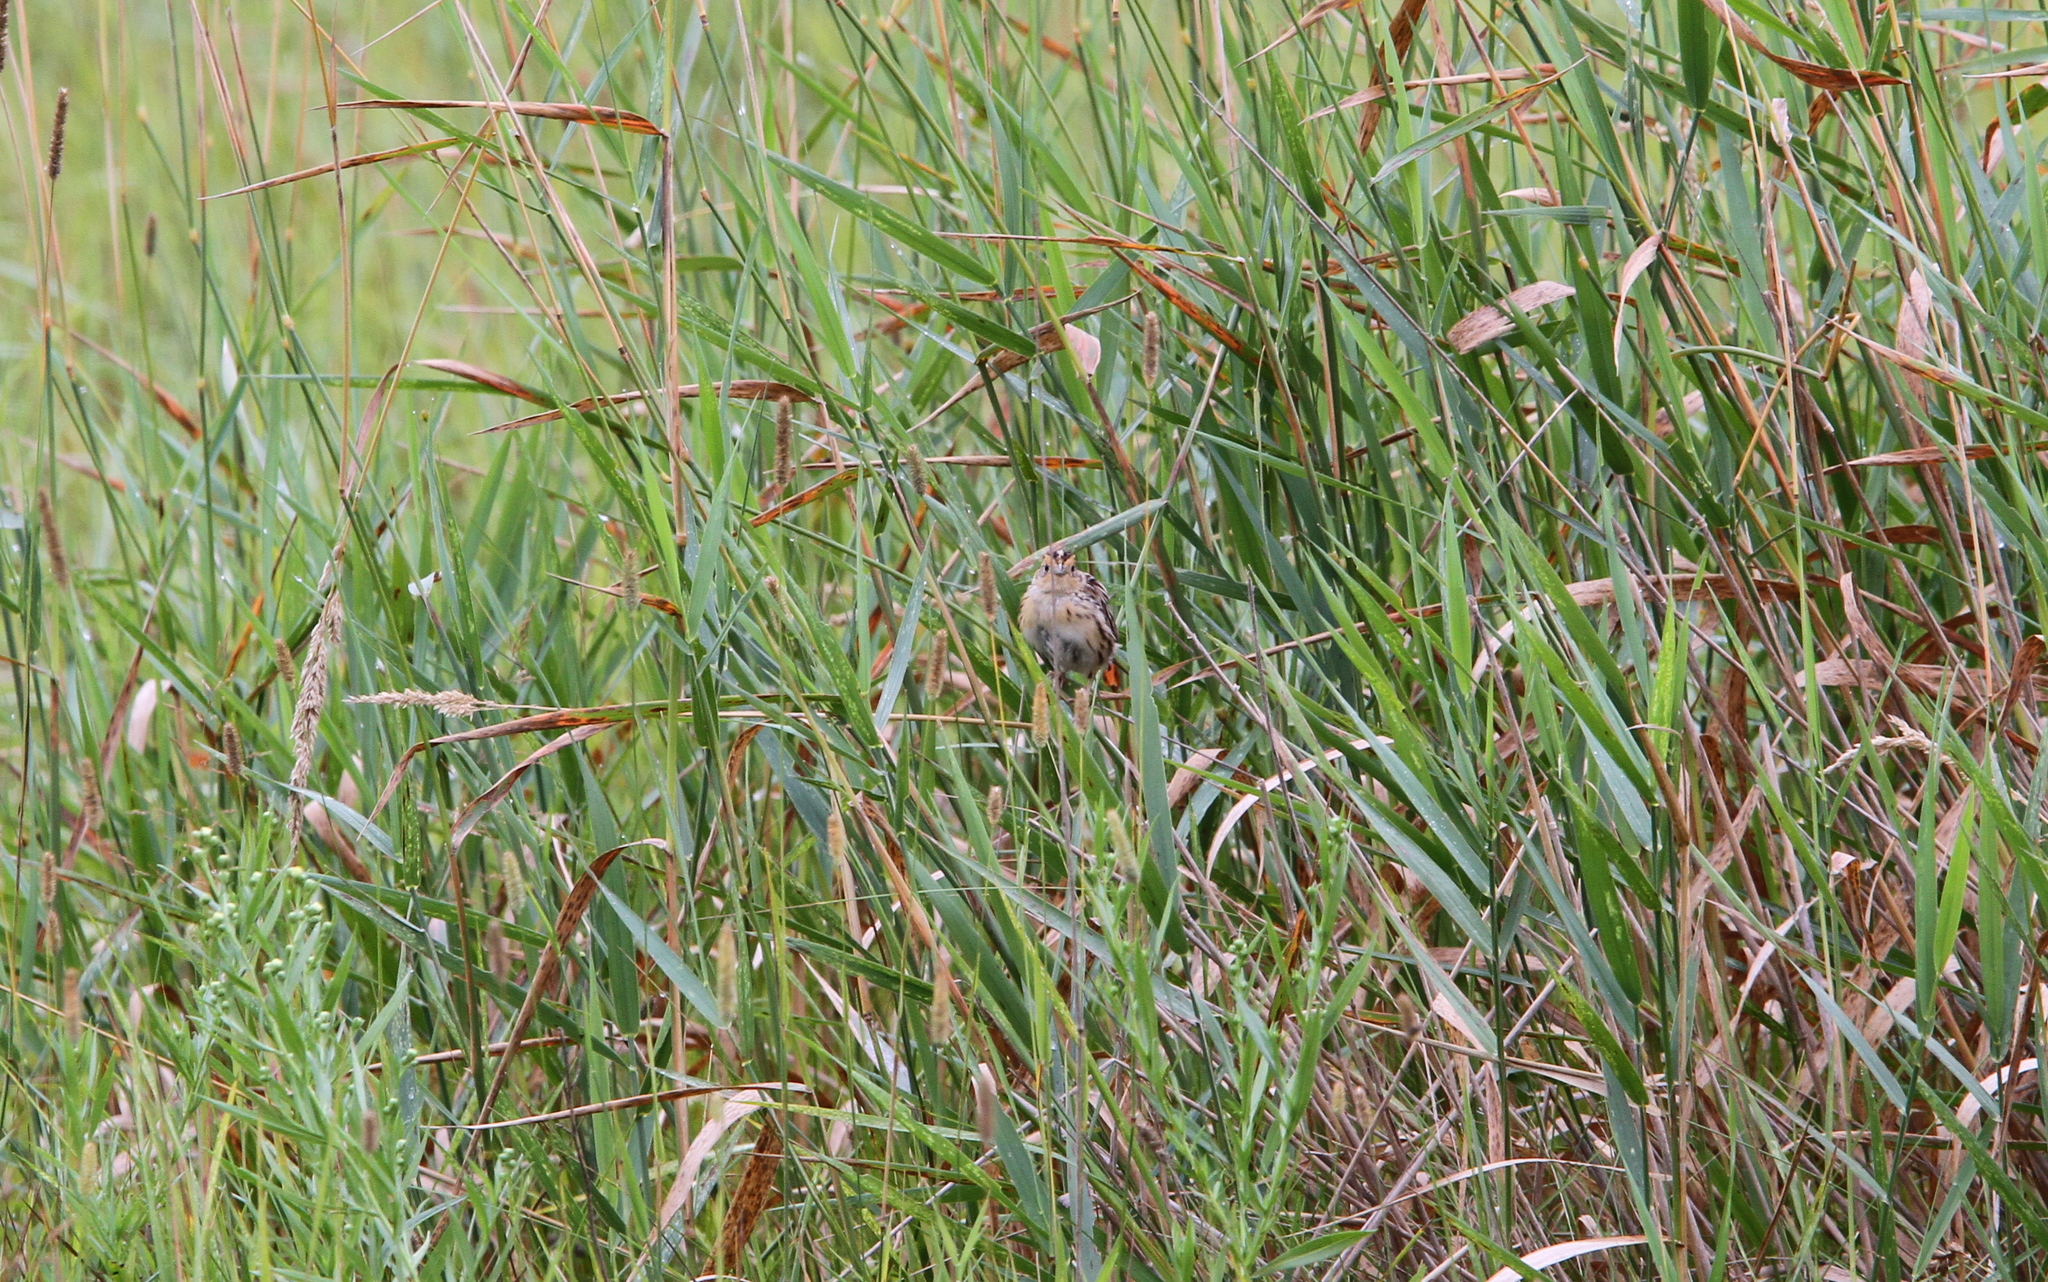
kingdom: Animalia
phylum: Chordata
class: Aves
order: Passeriformes
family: Passerellidae
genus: Ammospiza
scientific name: Ammospiza leconteii
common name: Le conte's sparrow
